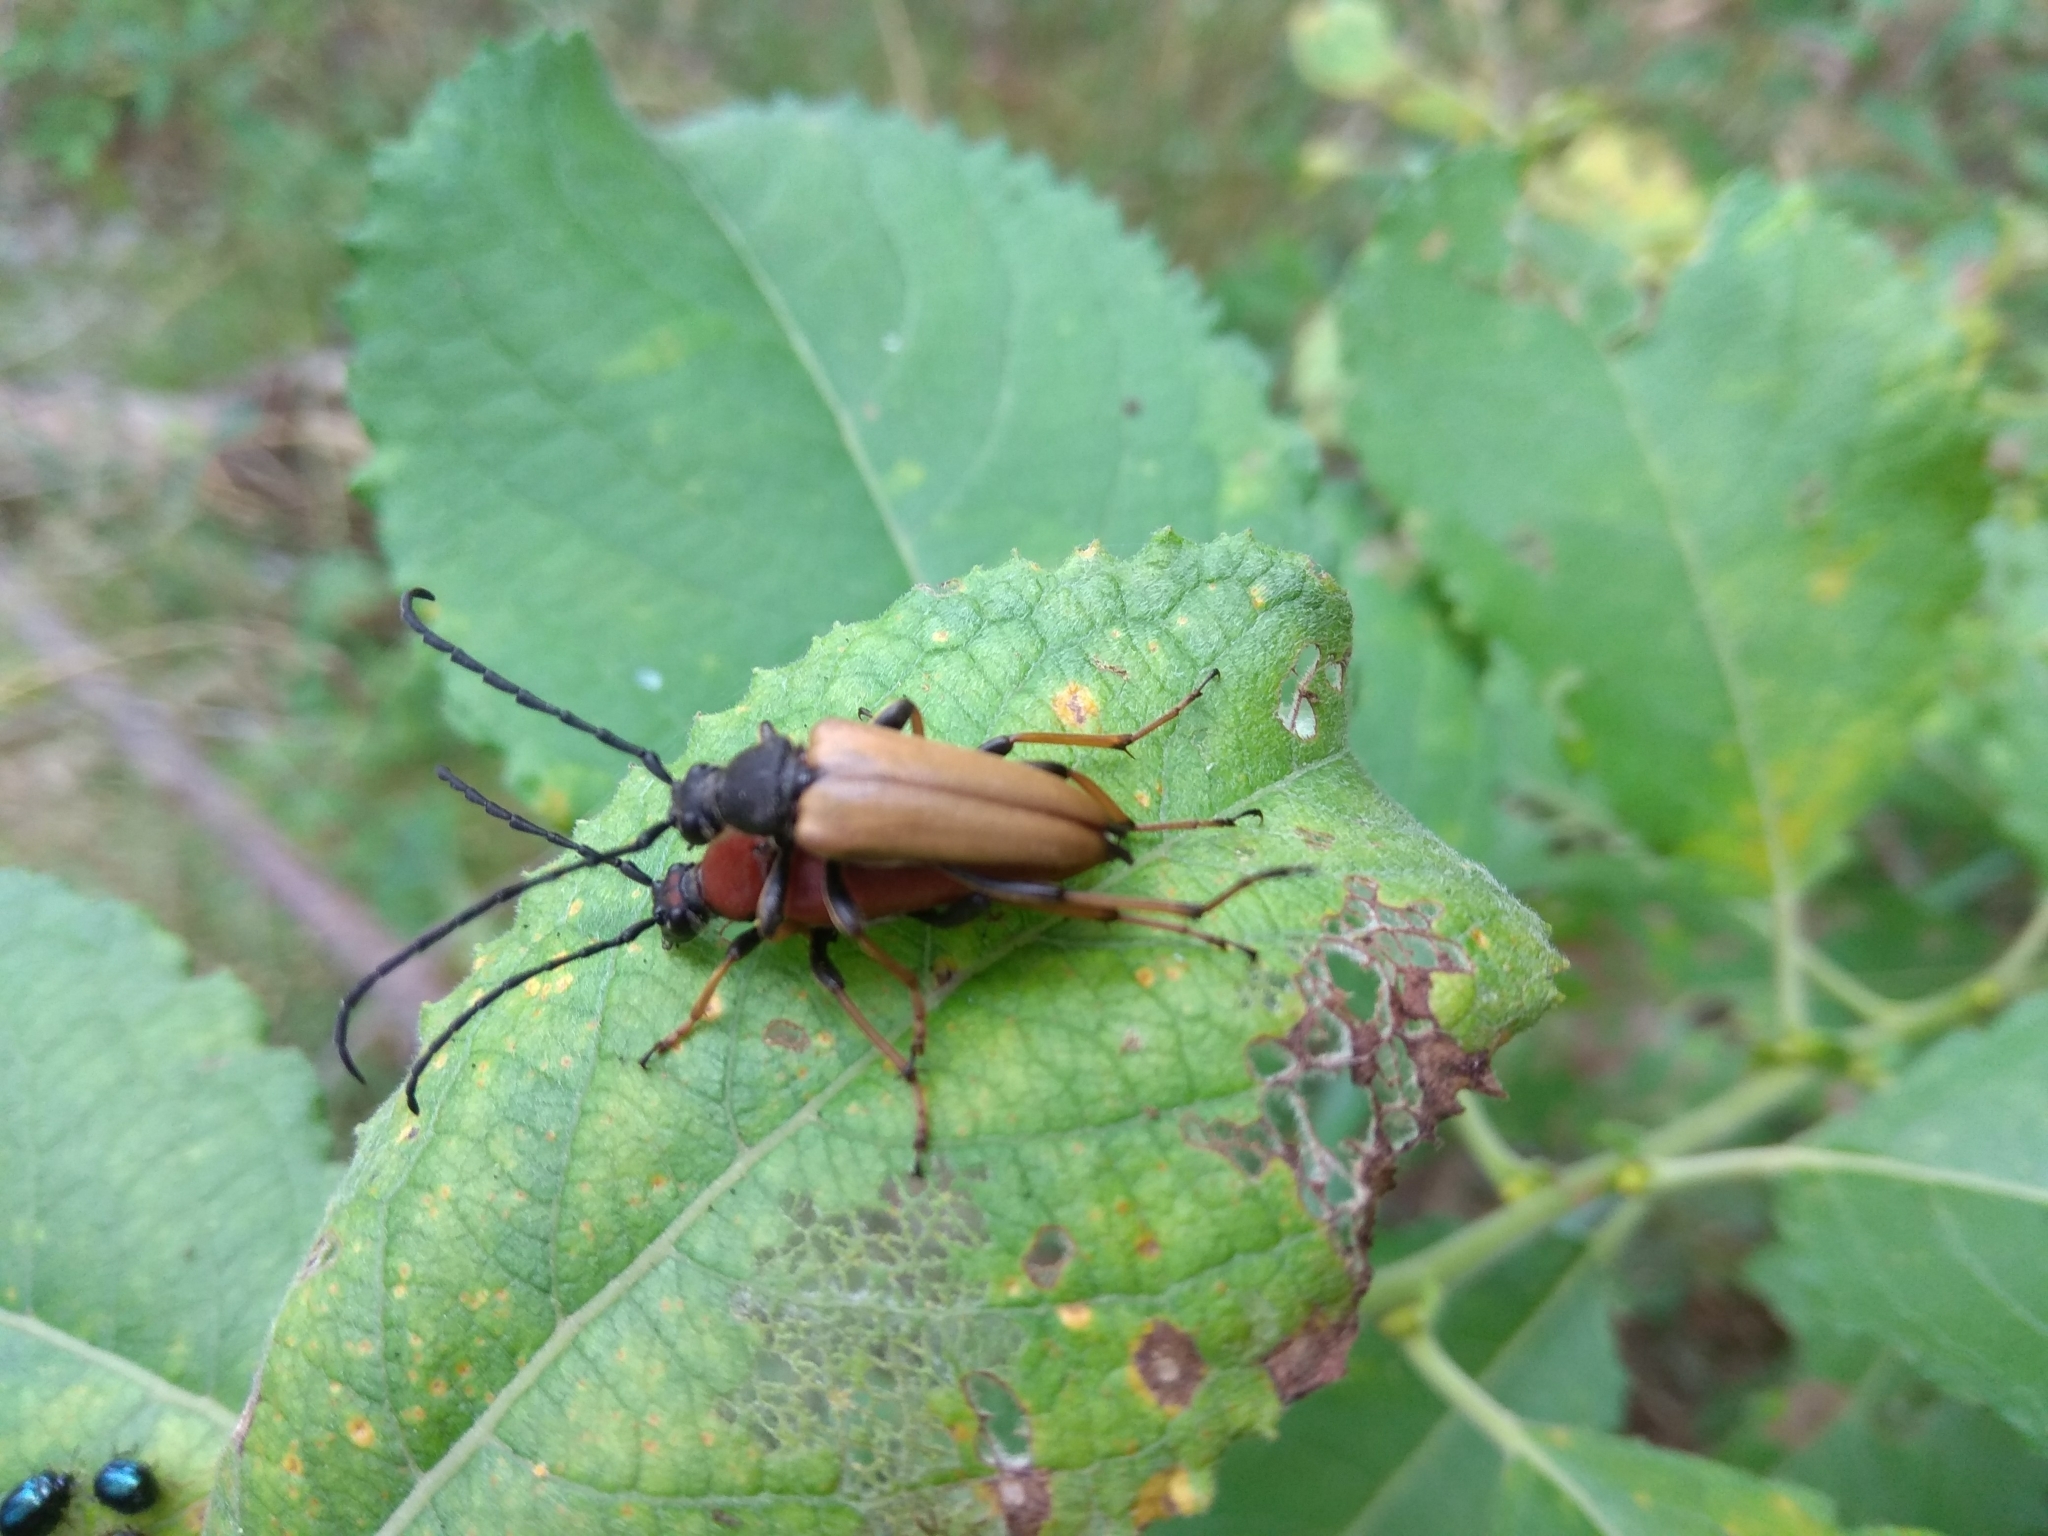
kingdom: Animalia
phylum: Arthropoda
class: Insecta
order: Coleoptera
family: Cerambycidae
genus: Stictoleptura
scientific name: Stictoleptura rubra
